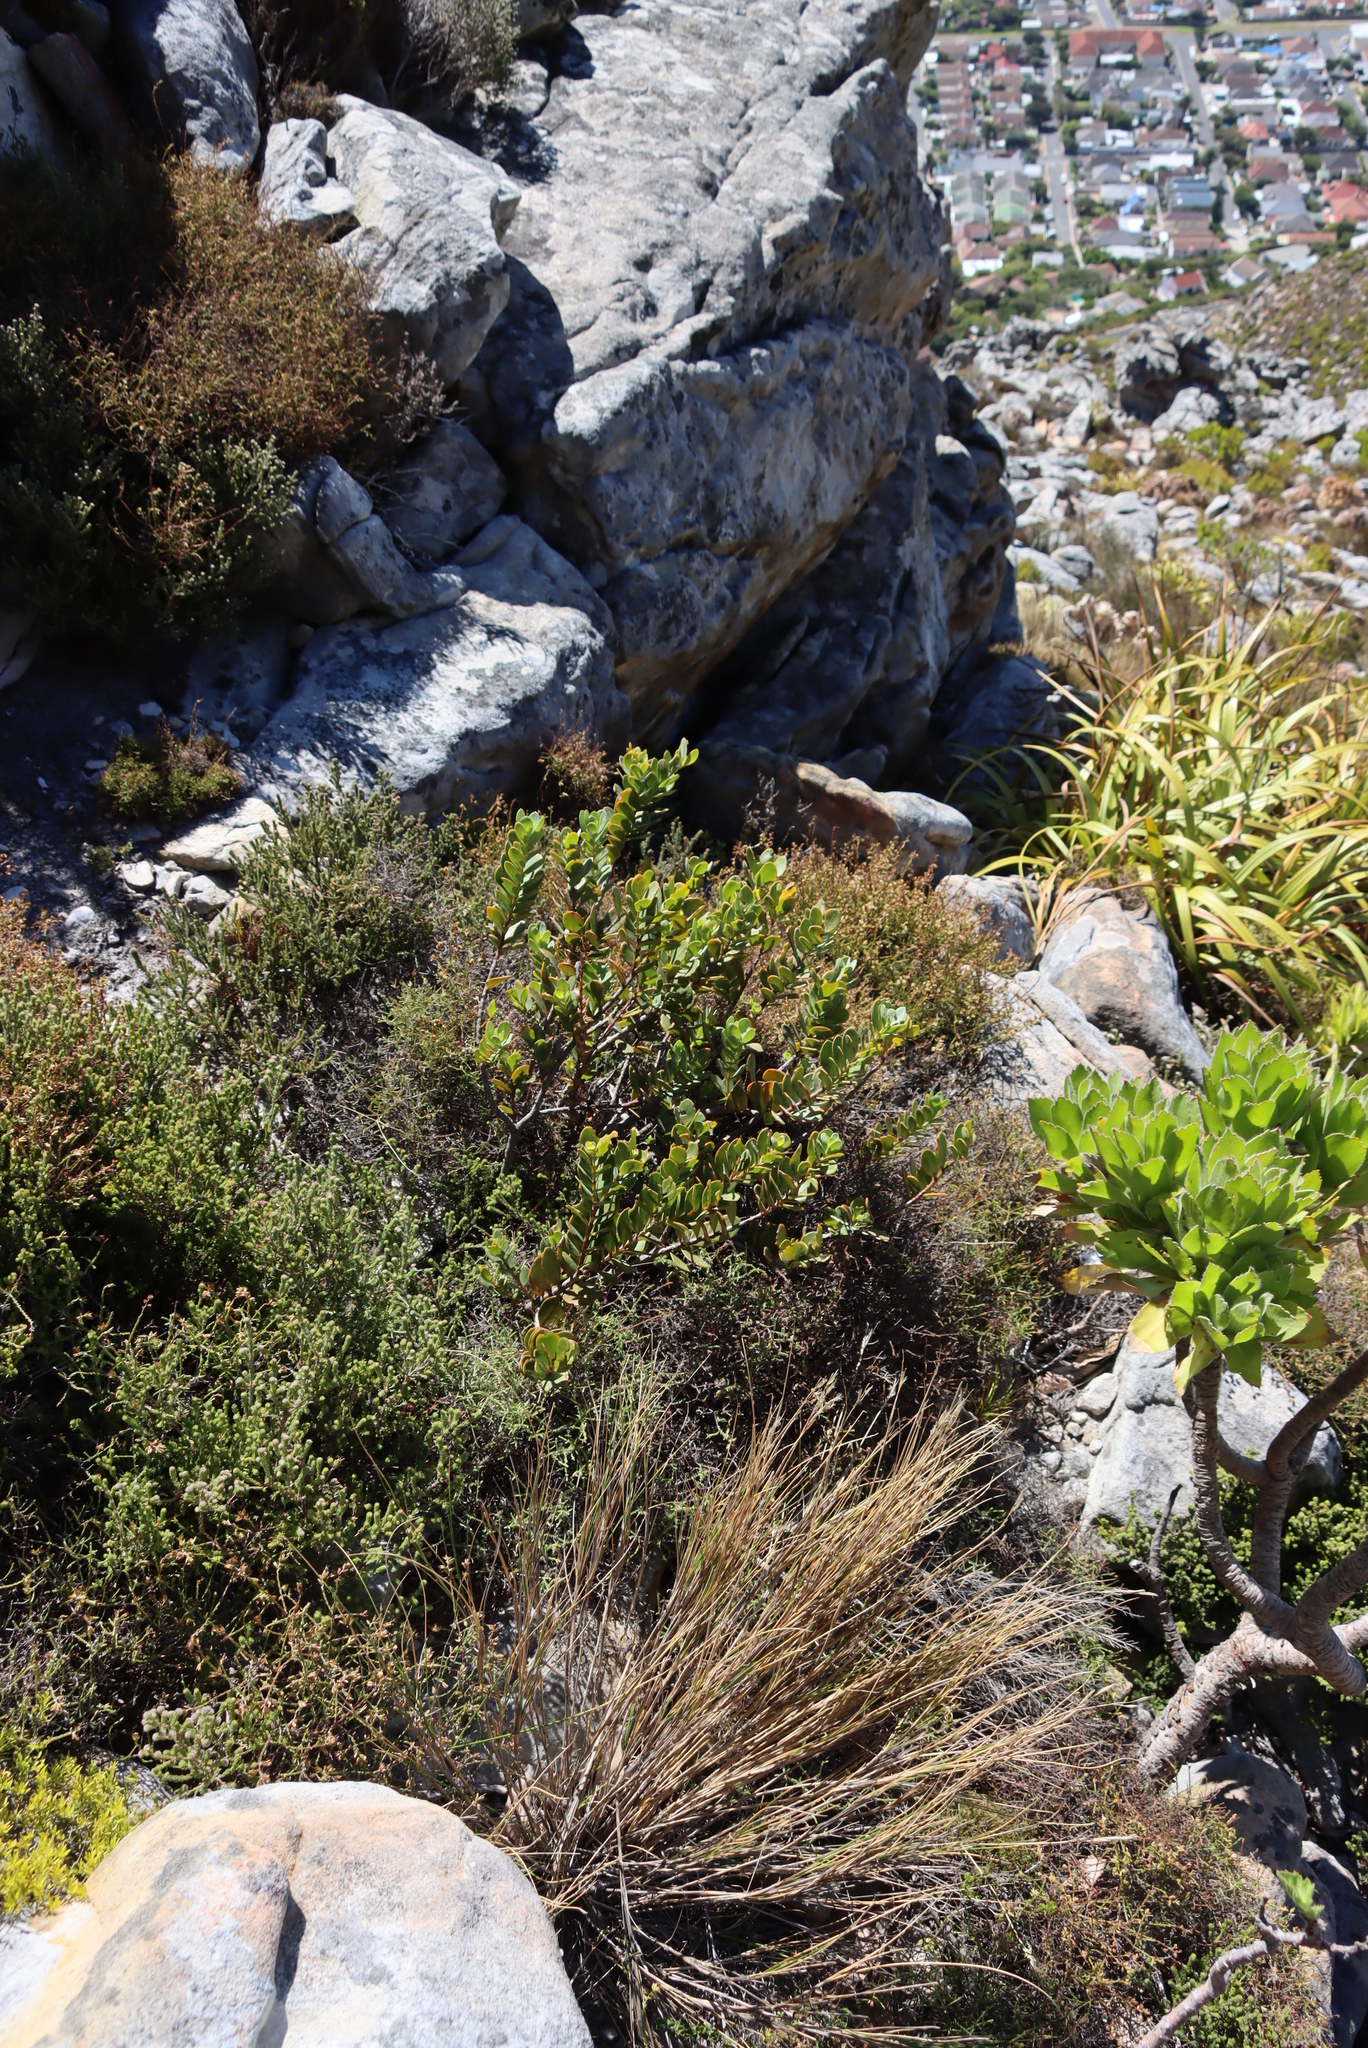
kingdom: Plantae
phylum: Tracheophyta
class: Magnoliopsida
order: Santalales
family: Santalaceae
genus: Osyris
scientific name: Osyris compressa
